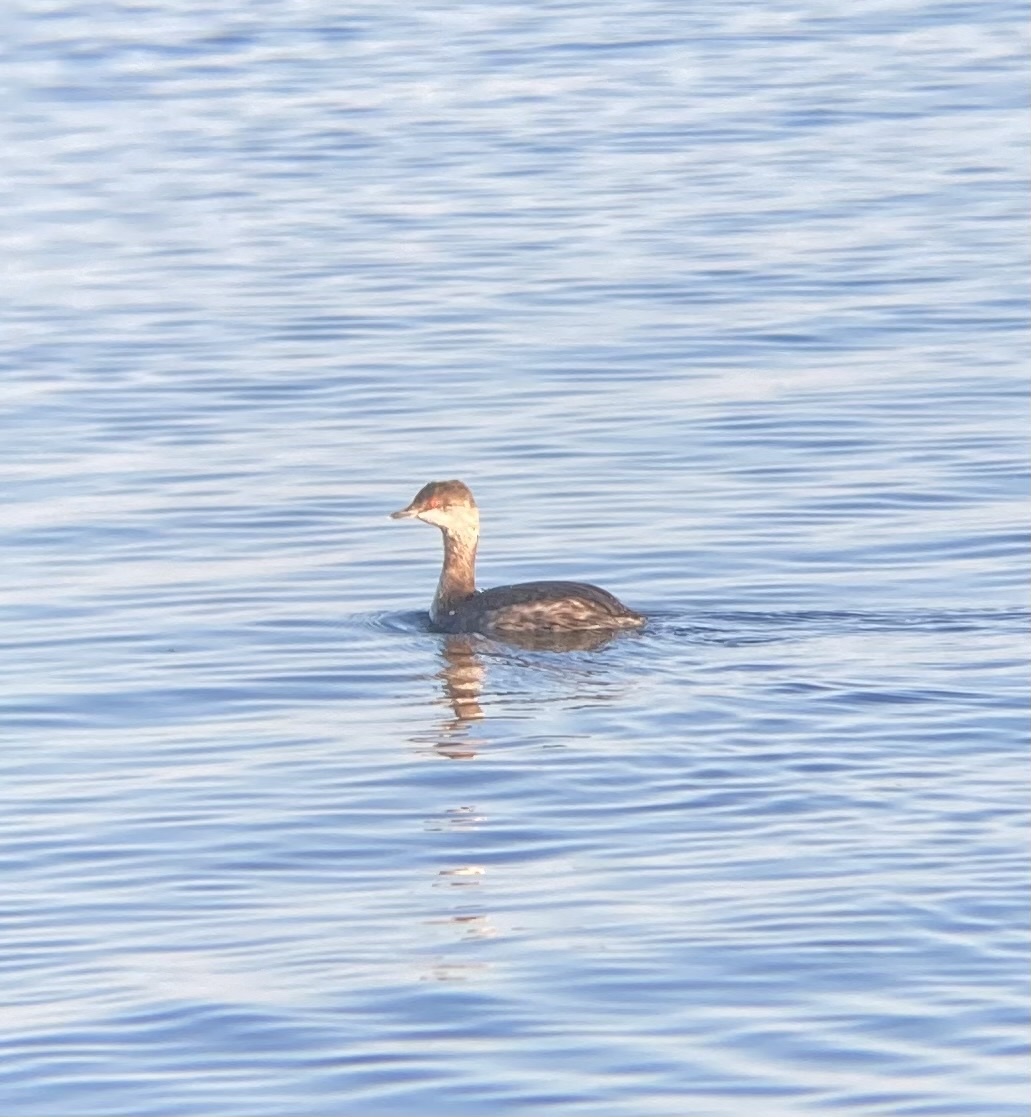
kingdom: Animalia
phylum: Chordata
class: Aves
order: Podicipediformes
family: Podicipedidae
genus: Podiceps
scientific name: Podiceps auritus
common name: Horned grebe
